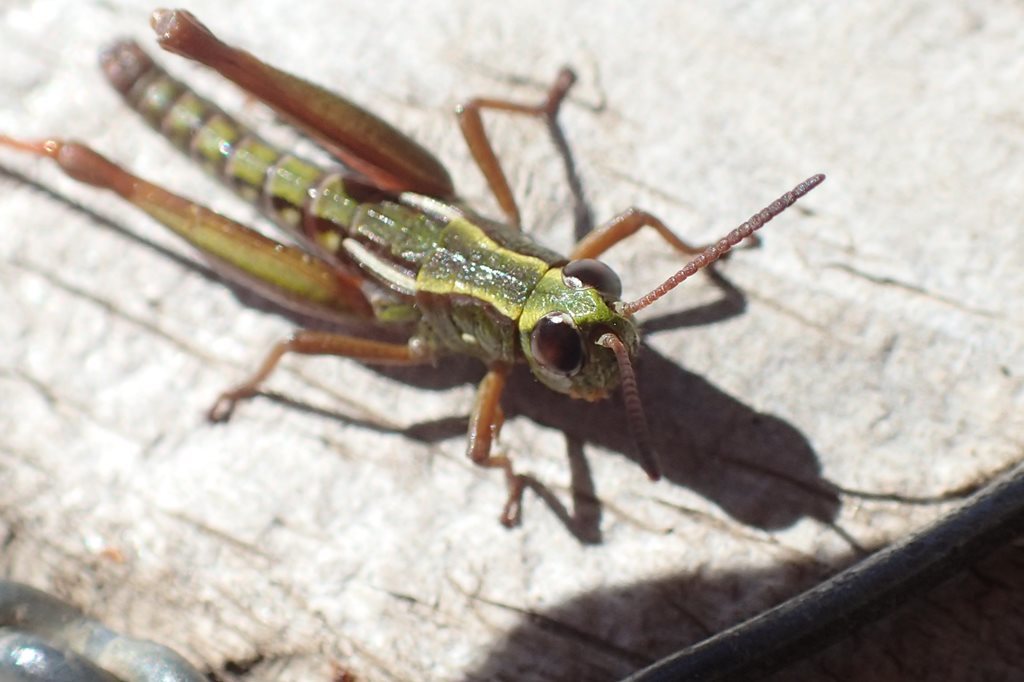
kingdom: Animalia
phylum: Arthropoda
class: Insecta
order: Orthoptera
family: Acrididae
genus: Russalpia
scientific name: Russalpia longifurca
